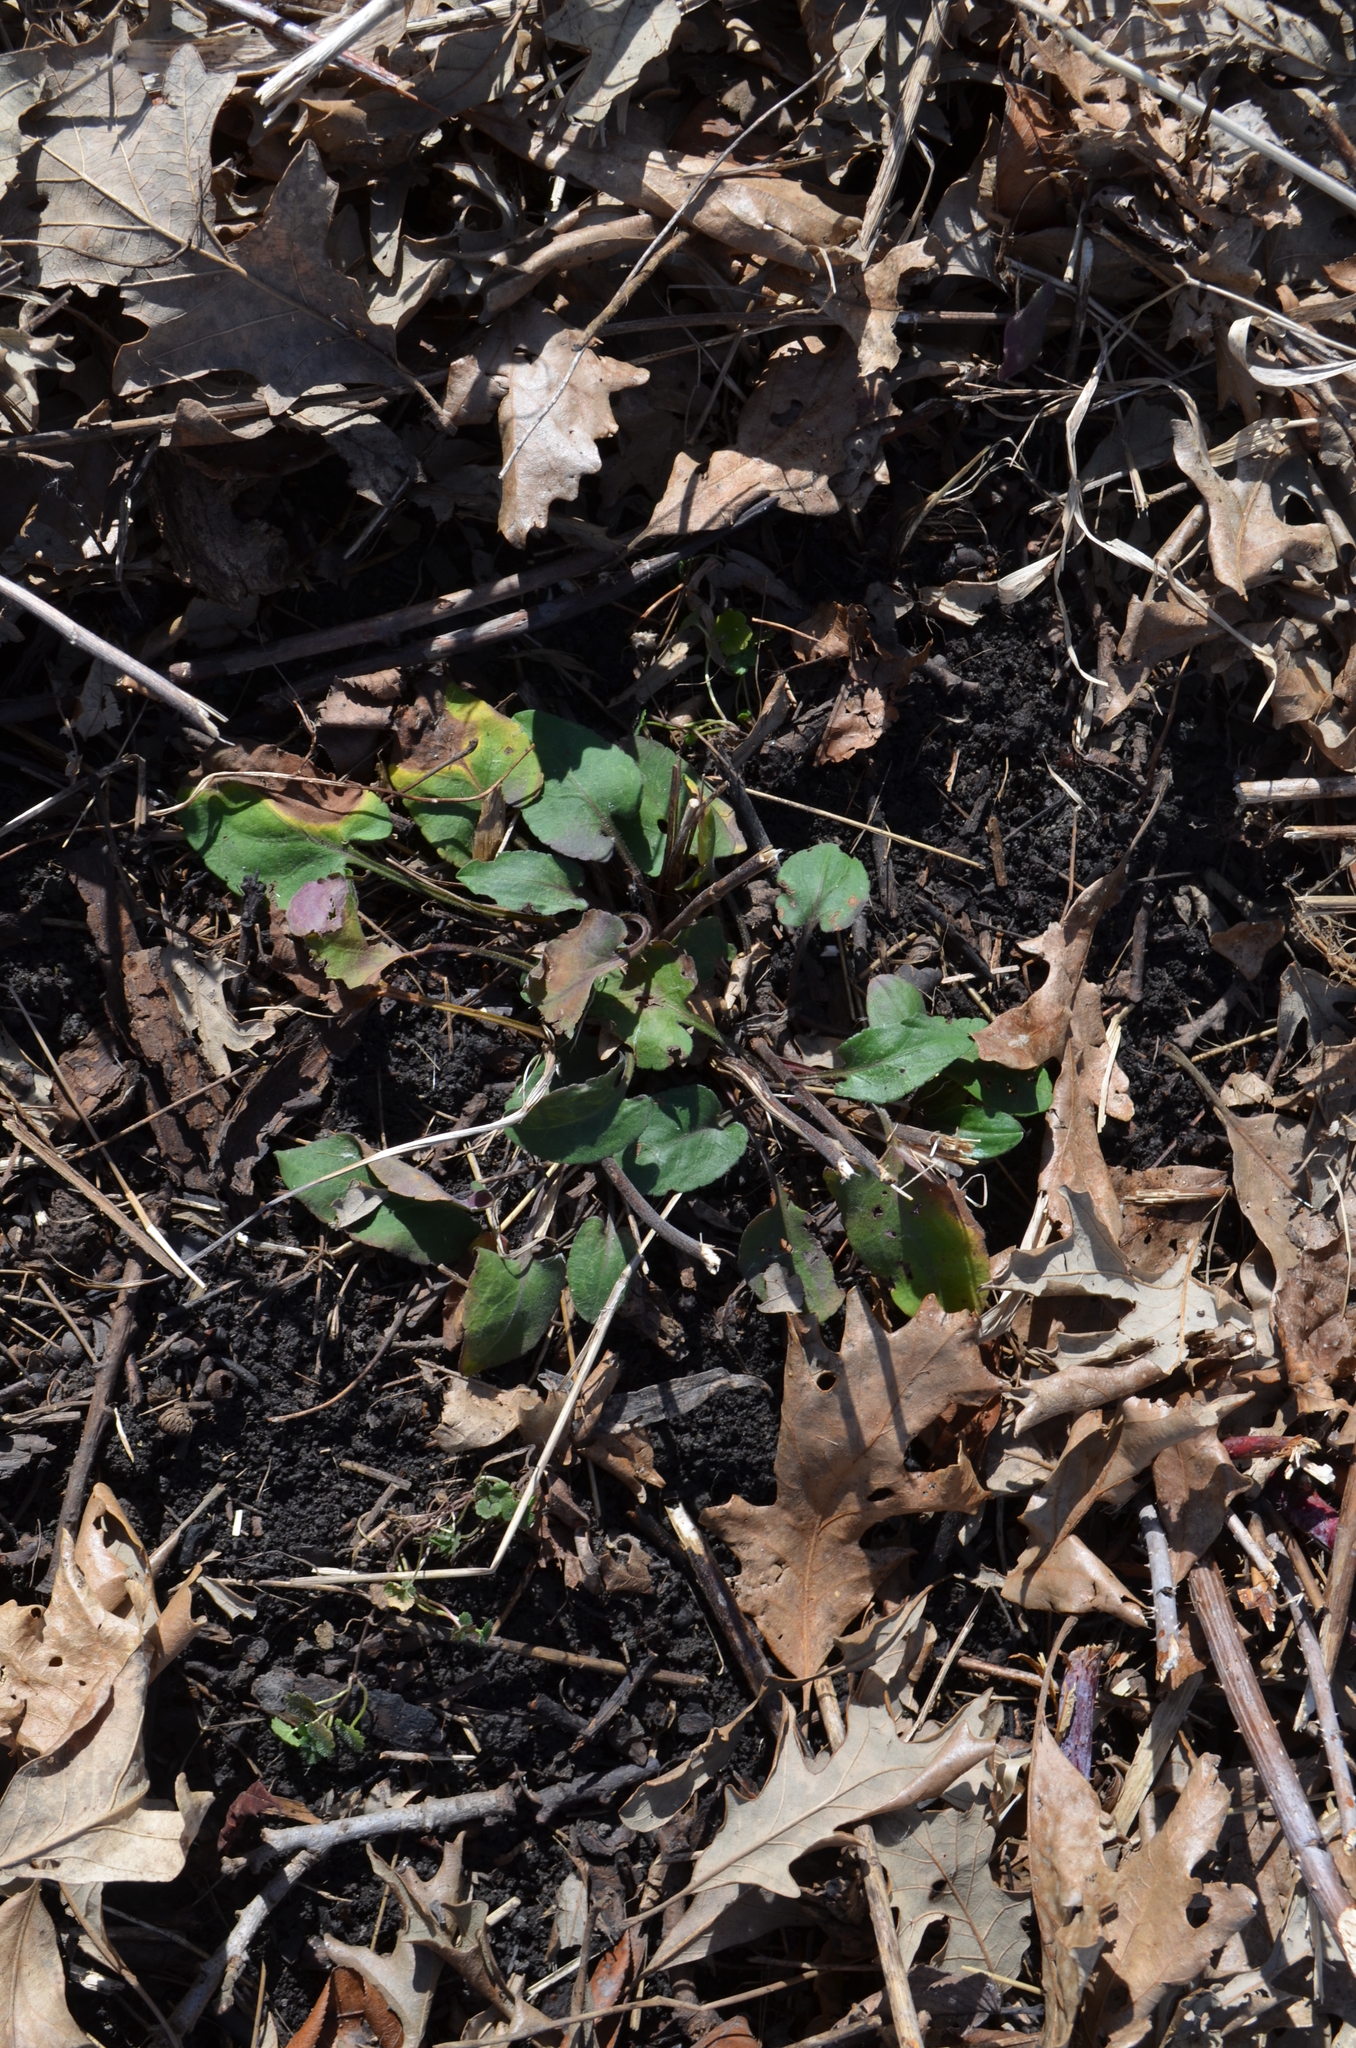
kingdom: Plantae
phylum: Tracheophyta
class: Magnoliopsida
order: Asterales
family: Asteraceae
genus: Symphyotrichum
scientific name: Symphyotrichum drummondii
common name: Drummond's aster
